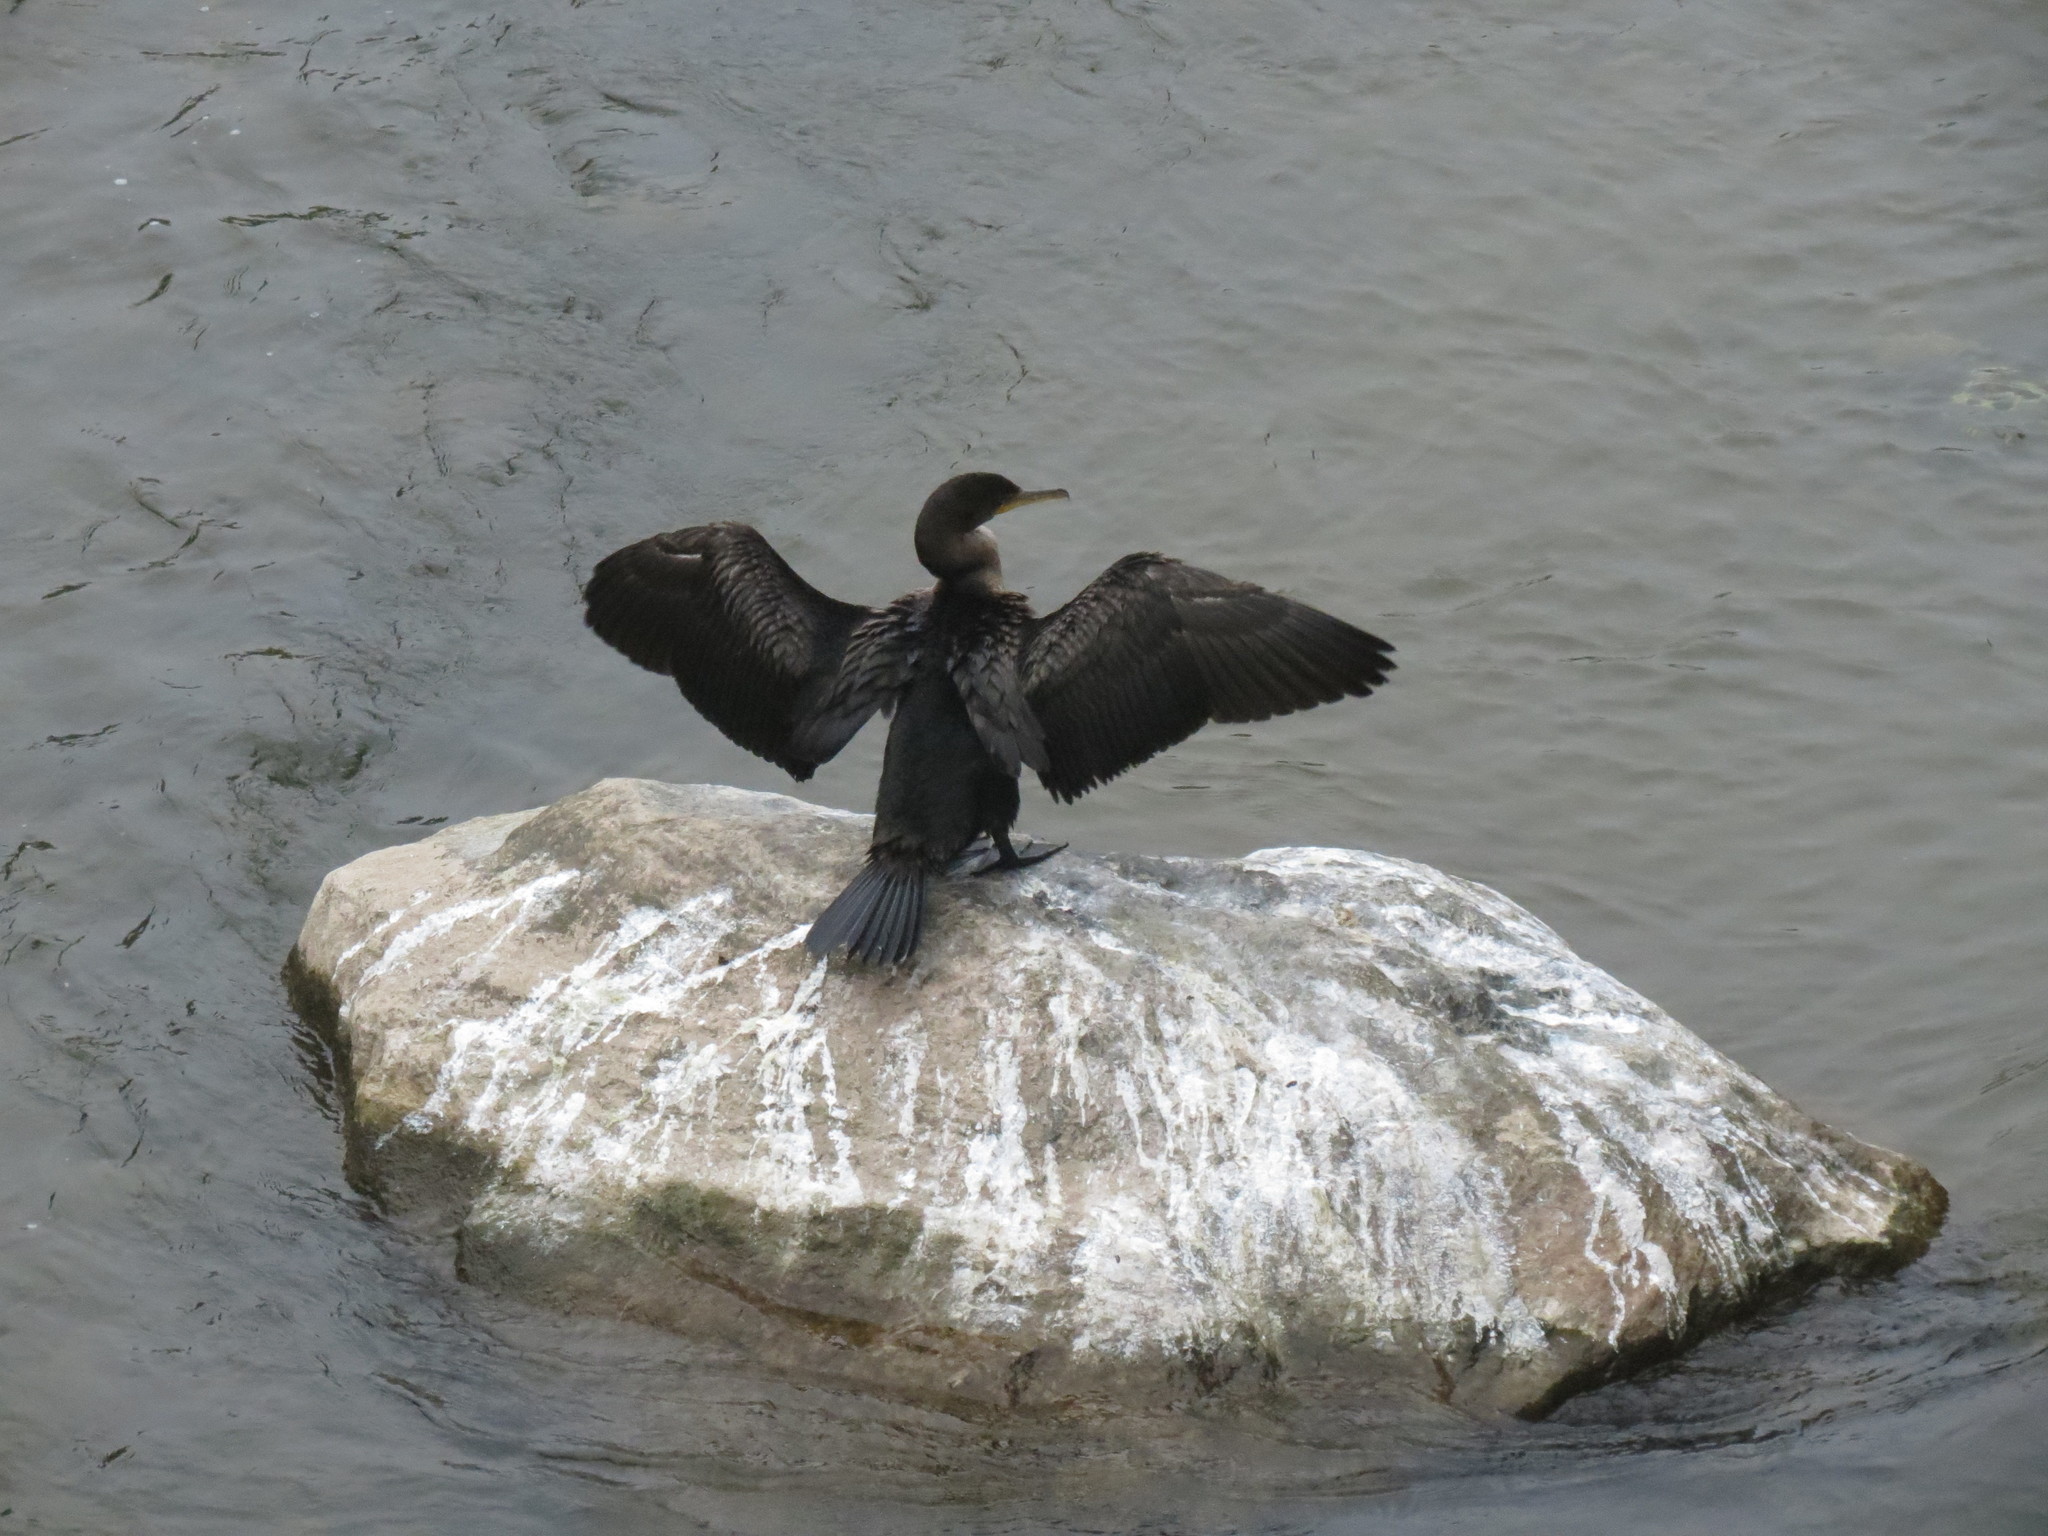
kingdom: Animalia
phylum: Chordata
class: Aves
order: Suliformes
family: Phalacrocoracidae
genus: Phalacrocorax
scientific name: Phalacrocorax auritus
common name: Double-crested cormorant
